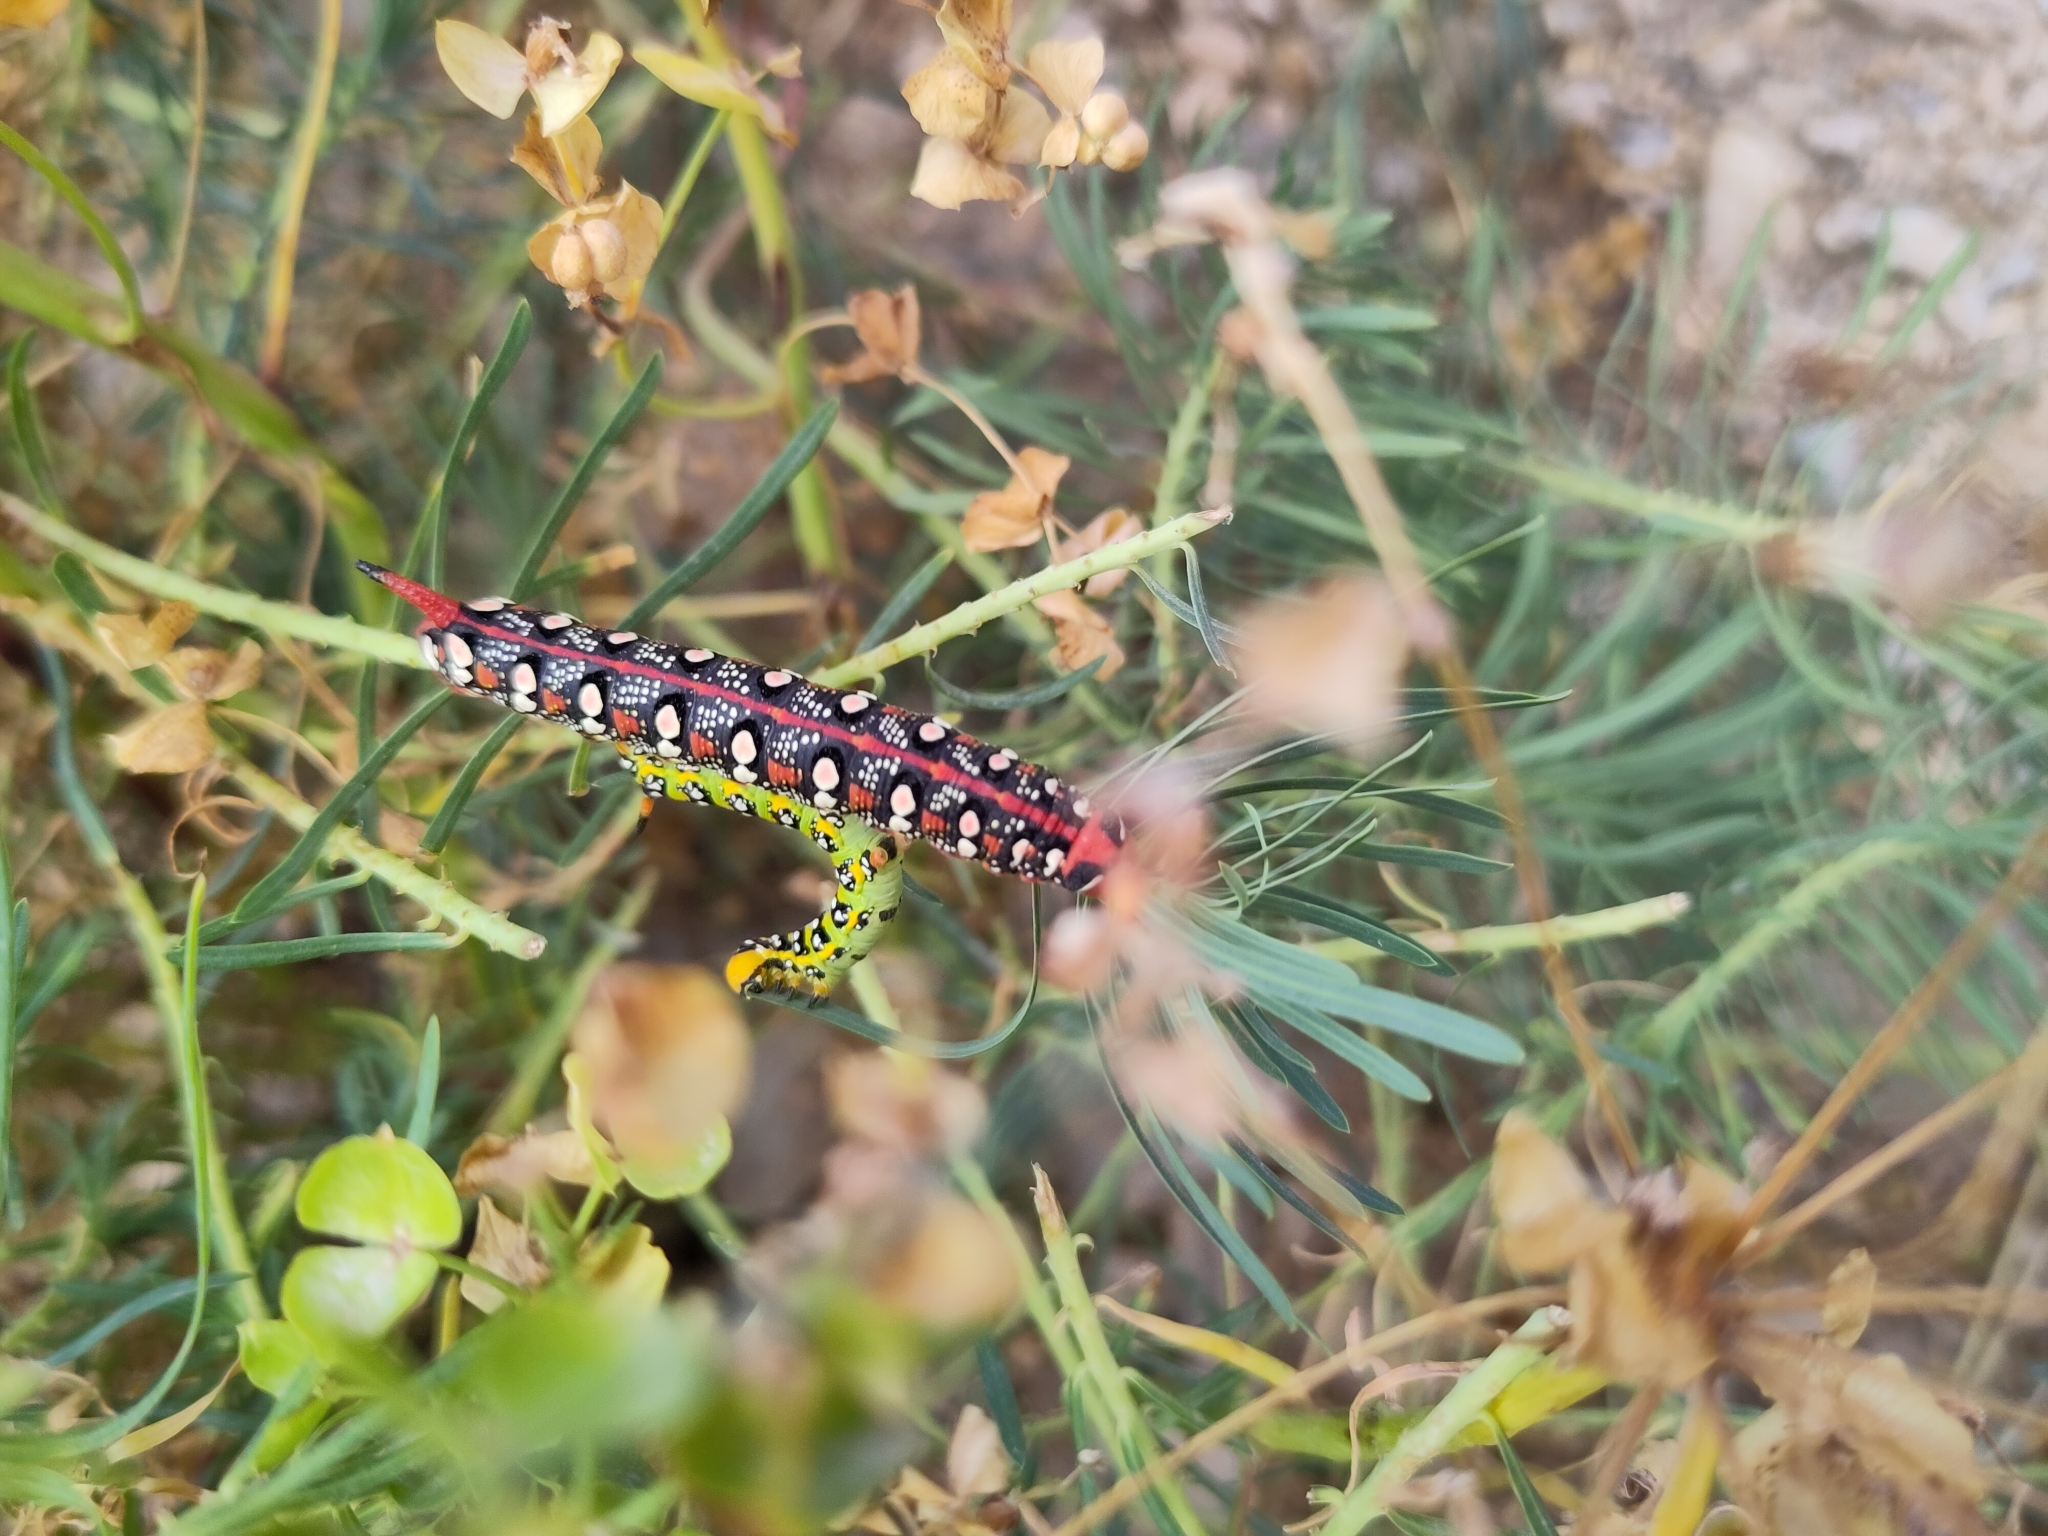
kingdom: Animalia
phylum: Arthropoda
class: Insecta
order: Lepidoptera
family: Sphingidae
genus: Hyles
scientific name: Hyles euphorbiae
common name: Spurge hawk-moth
